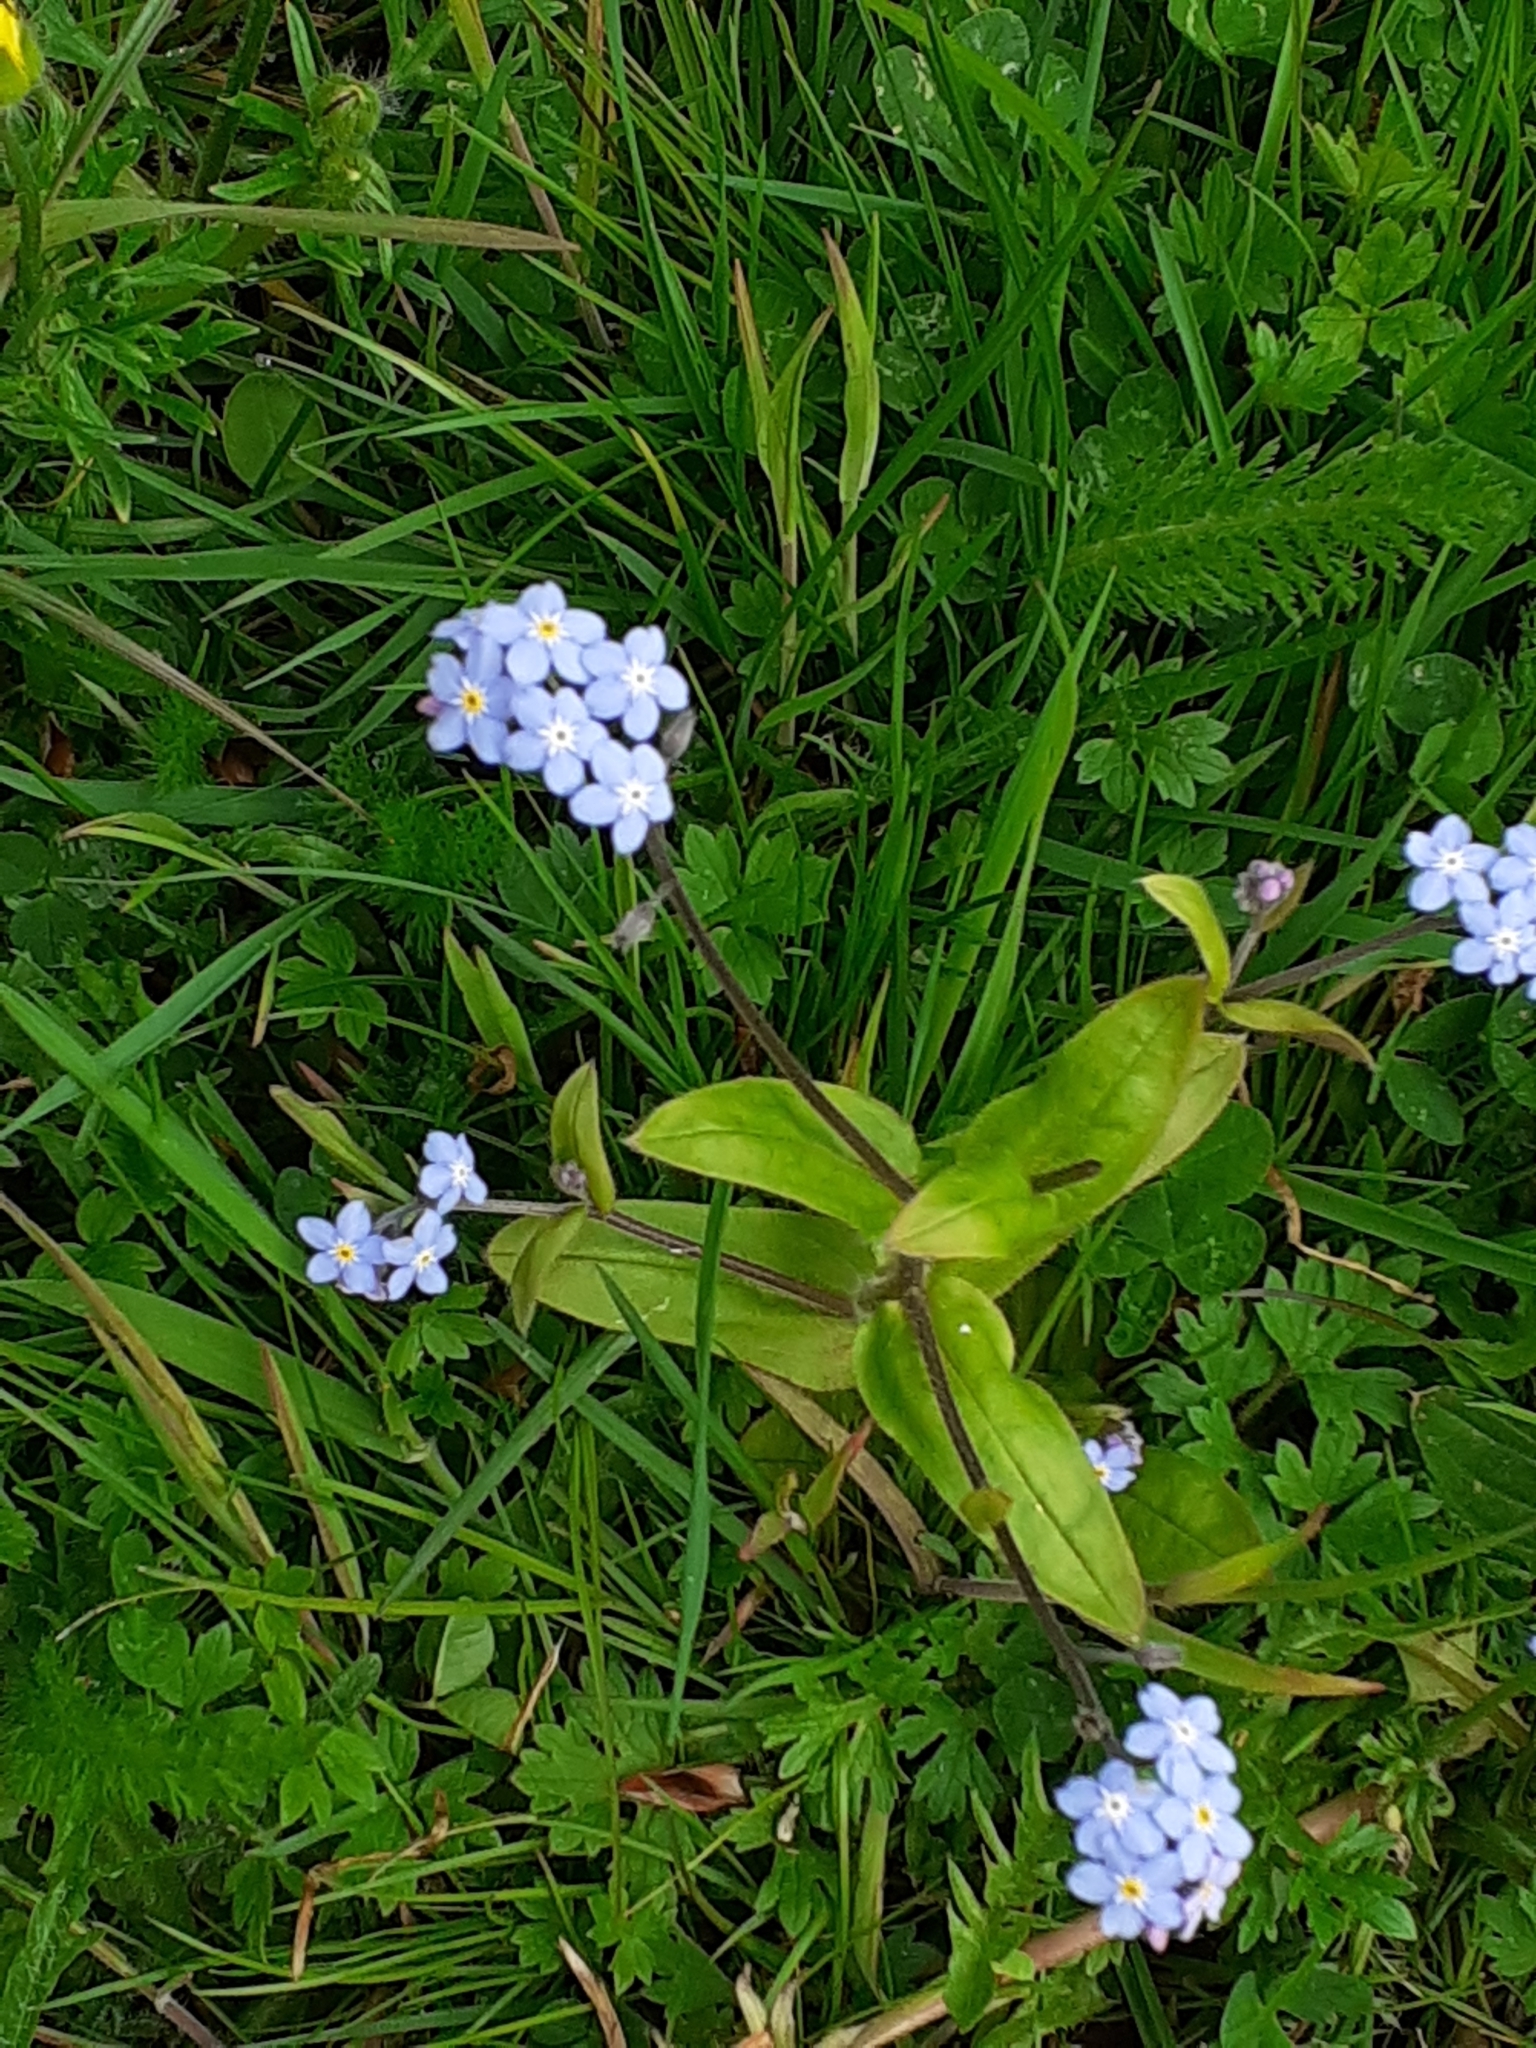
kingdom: Plantae
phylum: Tracheophyta
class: Magnoliopsida
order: Boraginales
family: Boraginaceae
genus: Myosotis
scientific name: Myosotis sylvatica
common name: Wood forget-me-not
